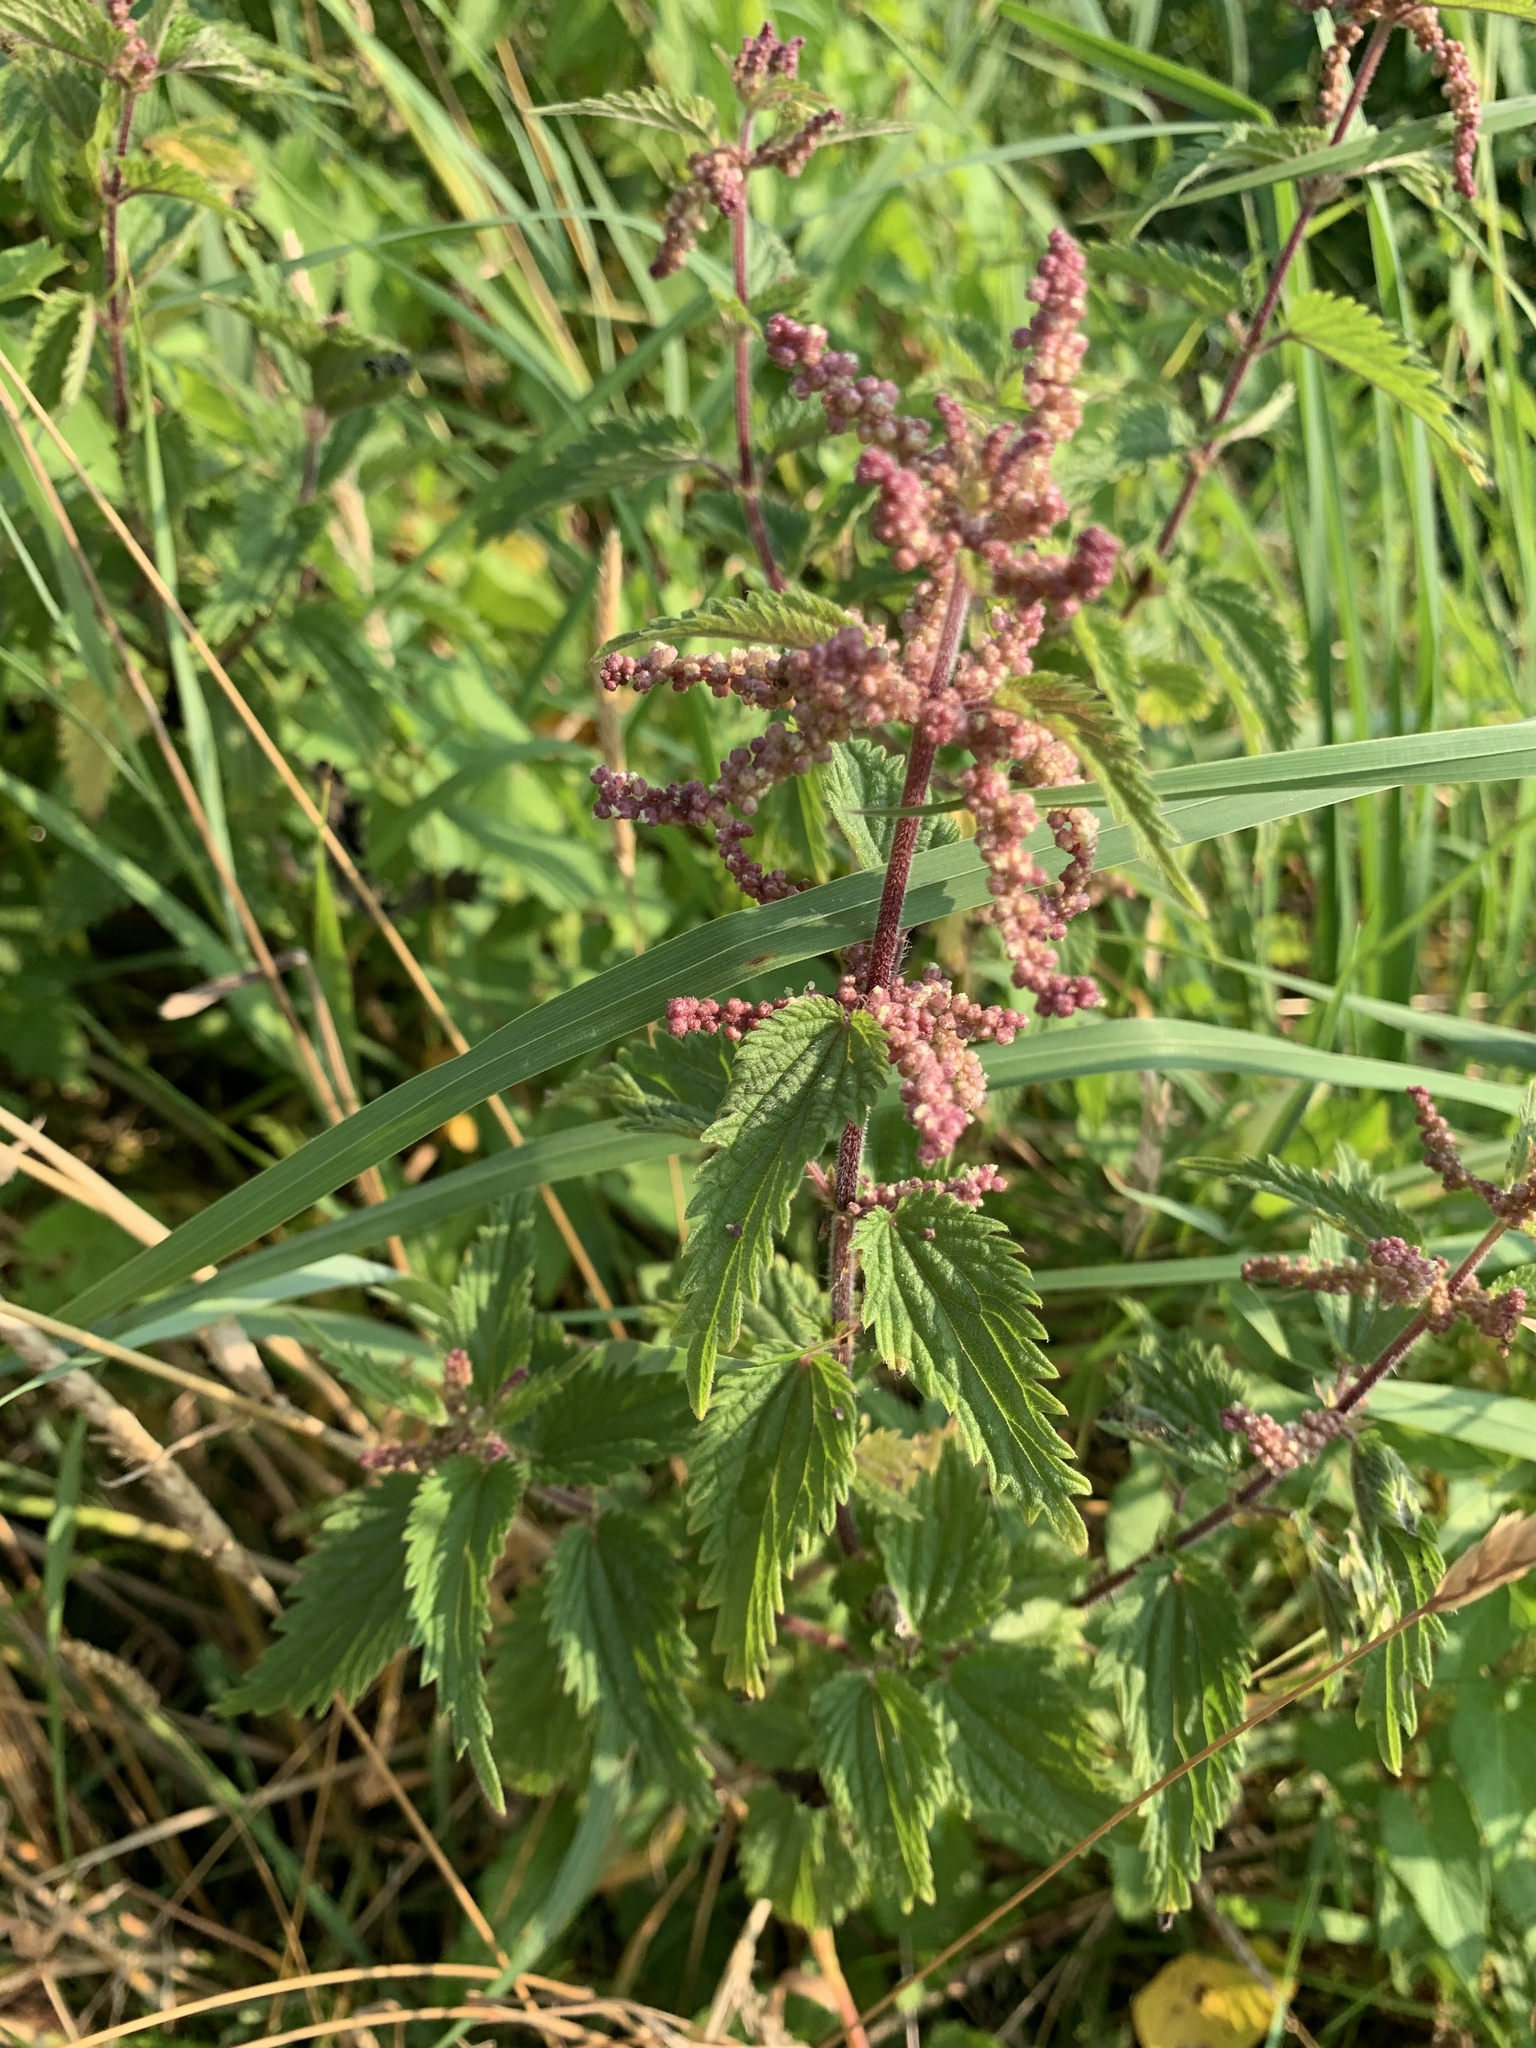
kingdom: Plantae
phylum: Tracheophyta
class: Magnoliopsida
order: Rosales
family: Urticaceae
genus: Urtica
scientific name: Urtica dioica
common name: Common nettle
